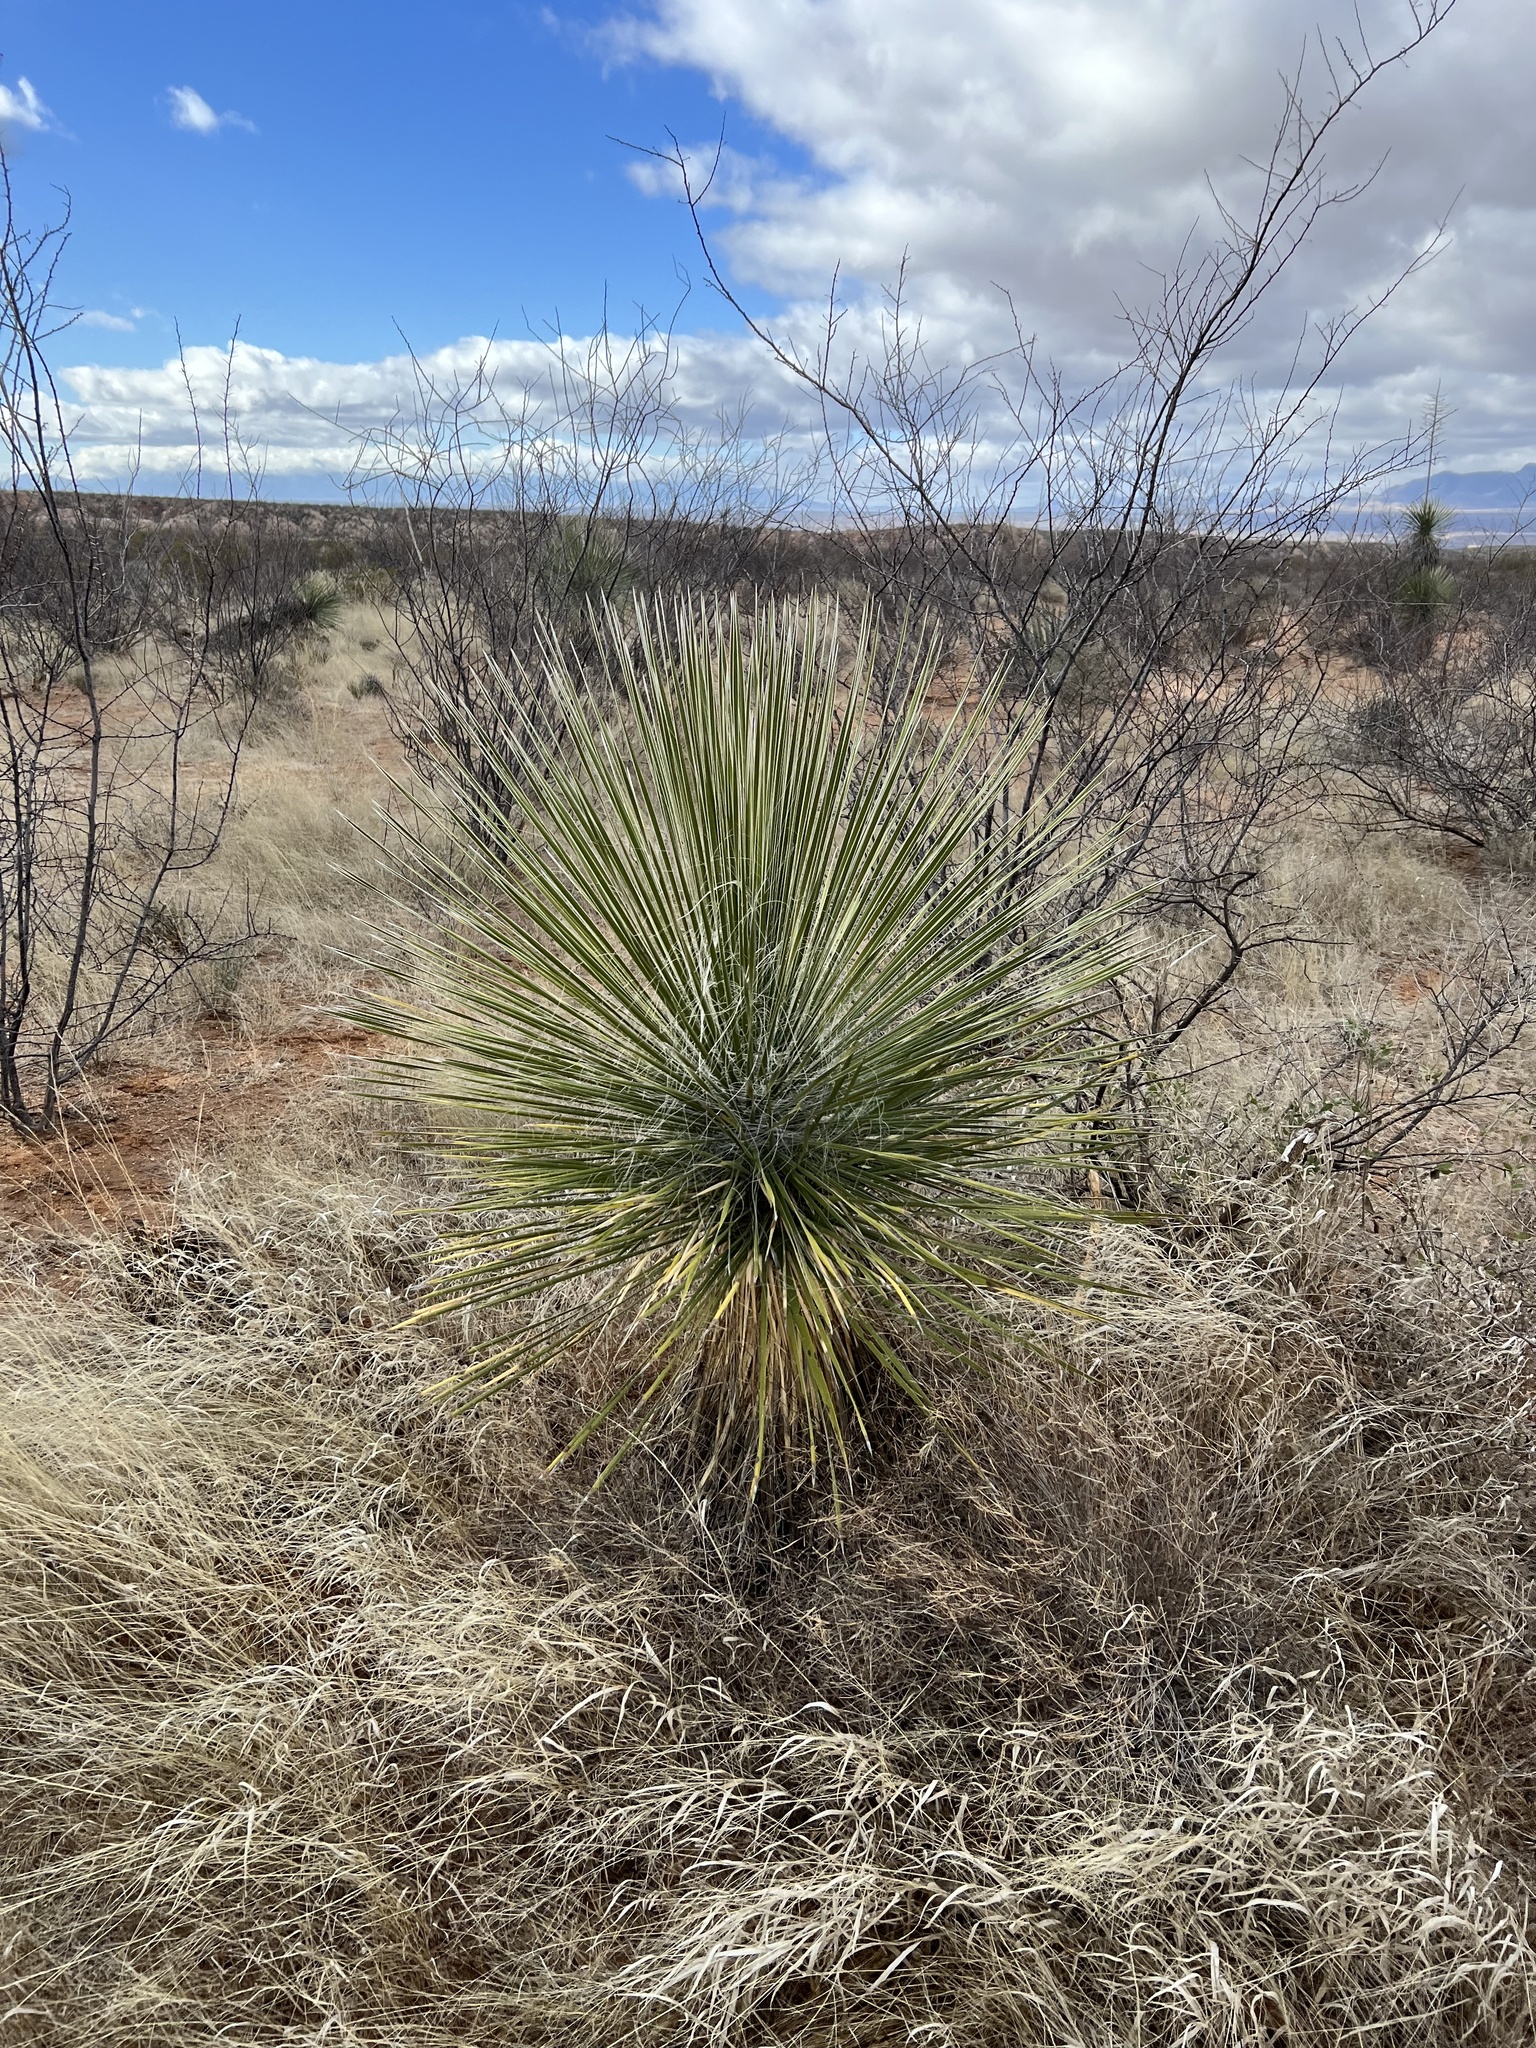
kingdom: Plantae
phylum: Tracheophyta
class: Liliopsida
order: Asparagales
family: Asparagaceae
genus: Yucca
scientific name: Yucca elata
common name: Palmella
